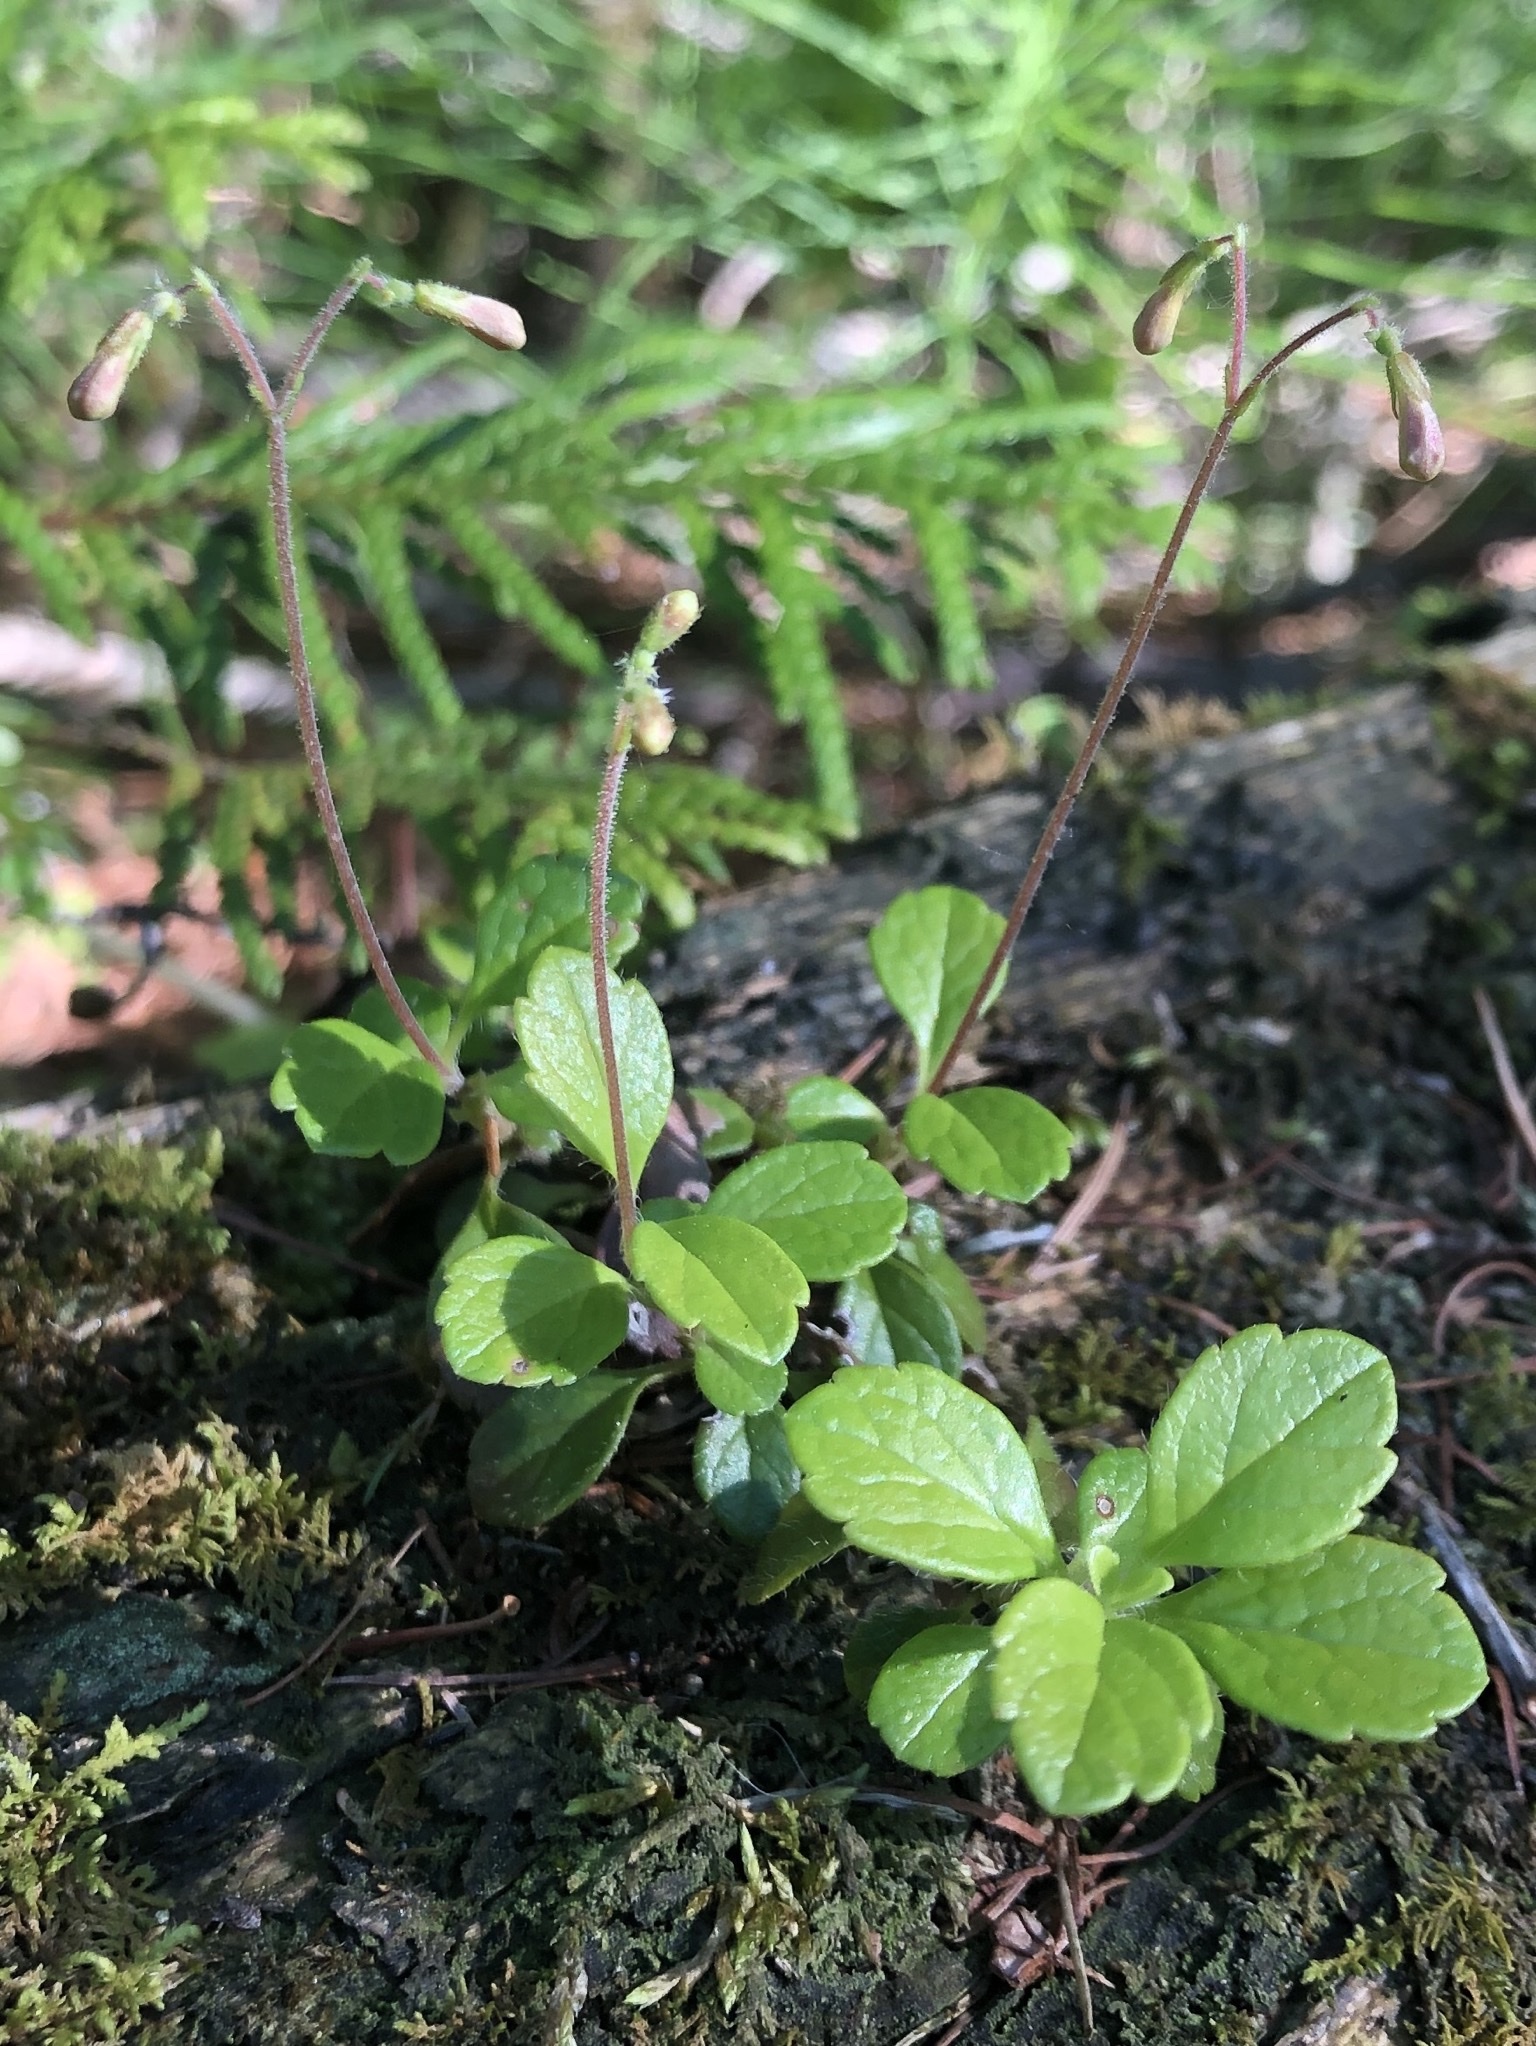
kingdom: Plantae
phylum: Tracheophyta
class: Magnoliopsida
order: Dipsacales
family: Caprifoliaceae
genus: Linnaea
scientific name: Linnaea borealis
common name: Twinflower
